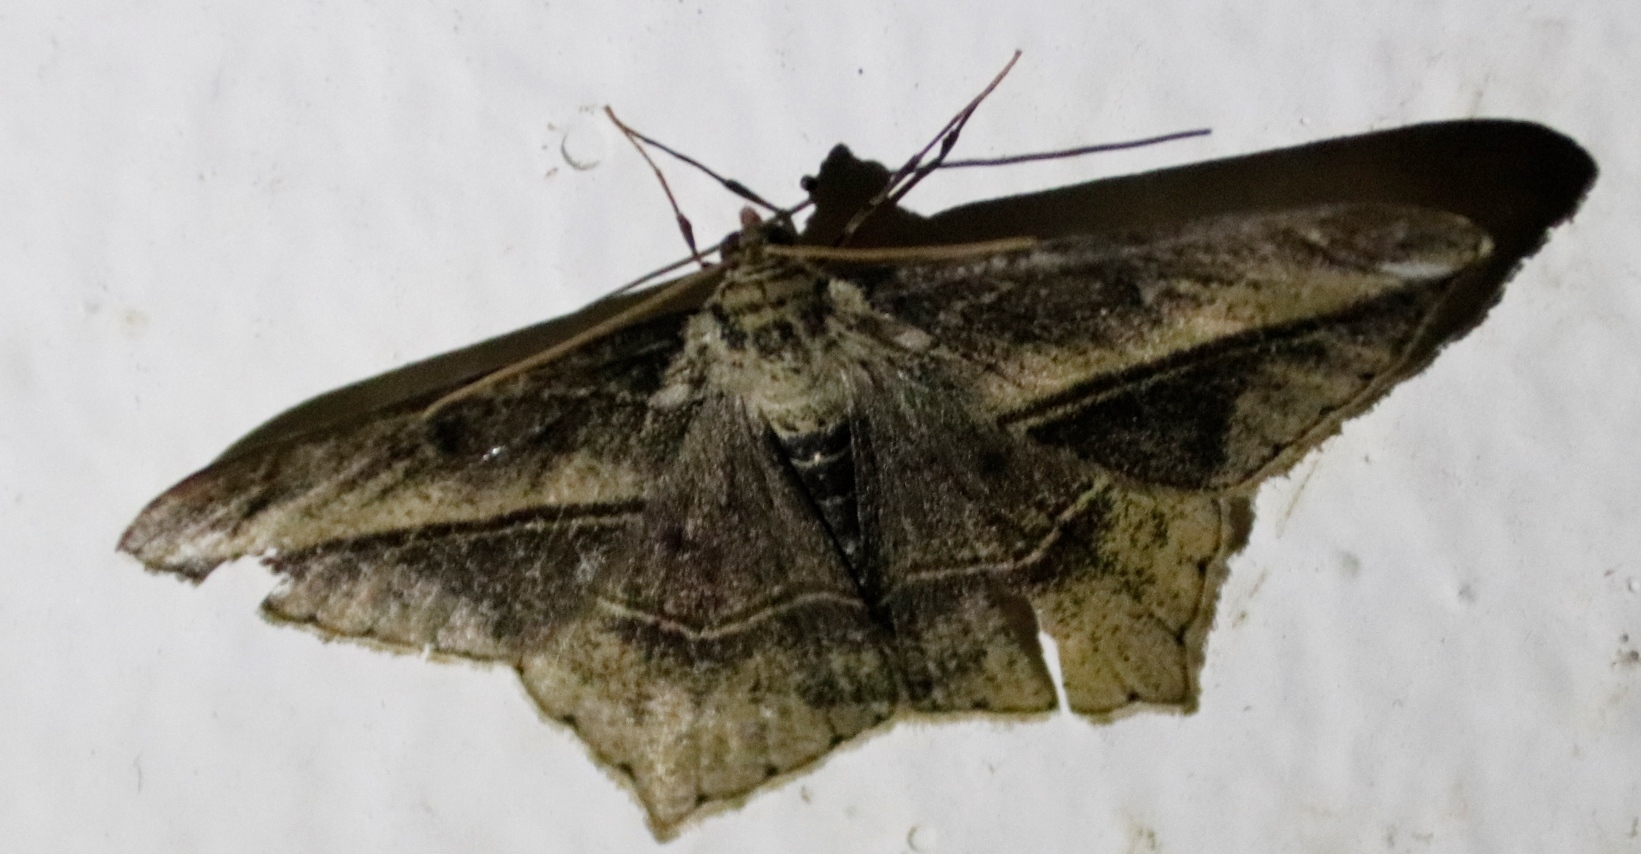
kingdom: Animalia
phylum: Arthropoda
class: Insecta
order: Lepidoptera
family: Geometridae
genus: Chiasmia
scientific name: Chiasmia simplicilinea
